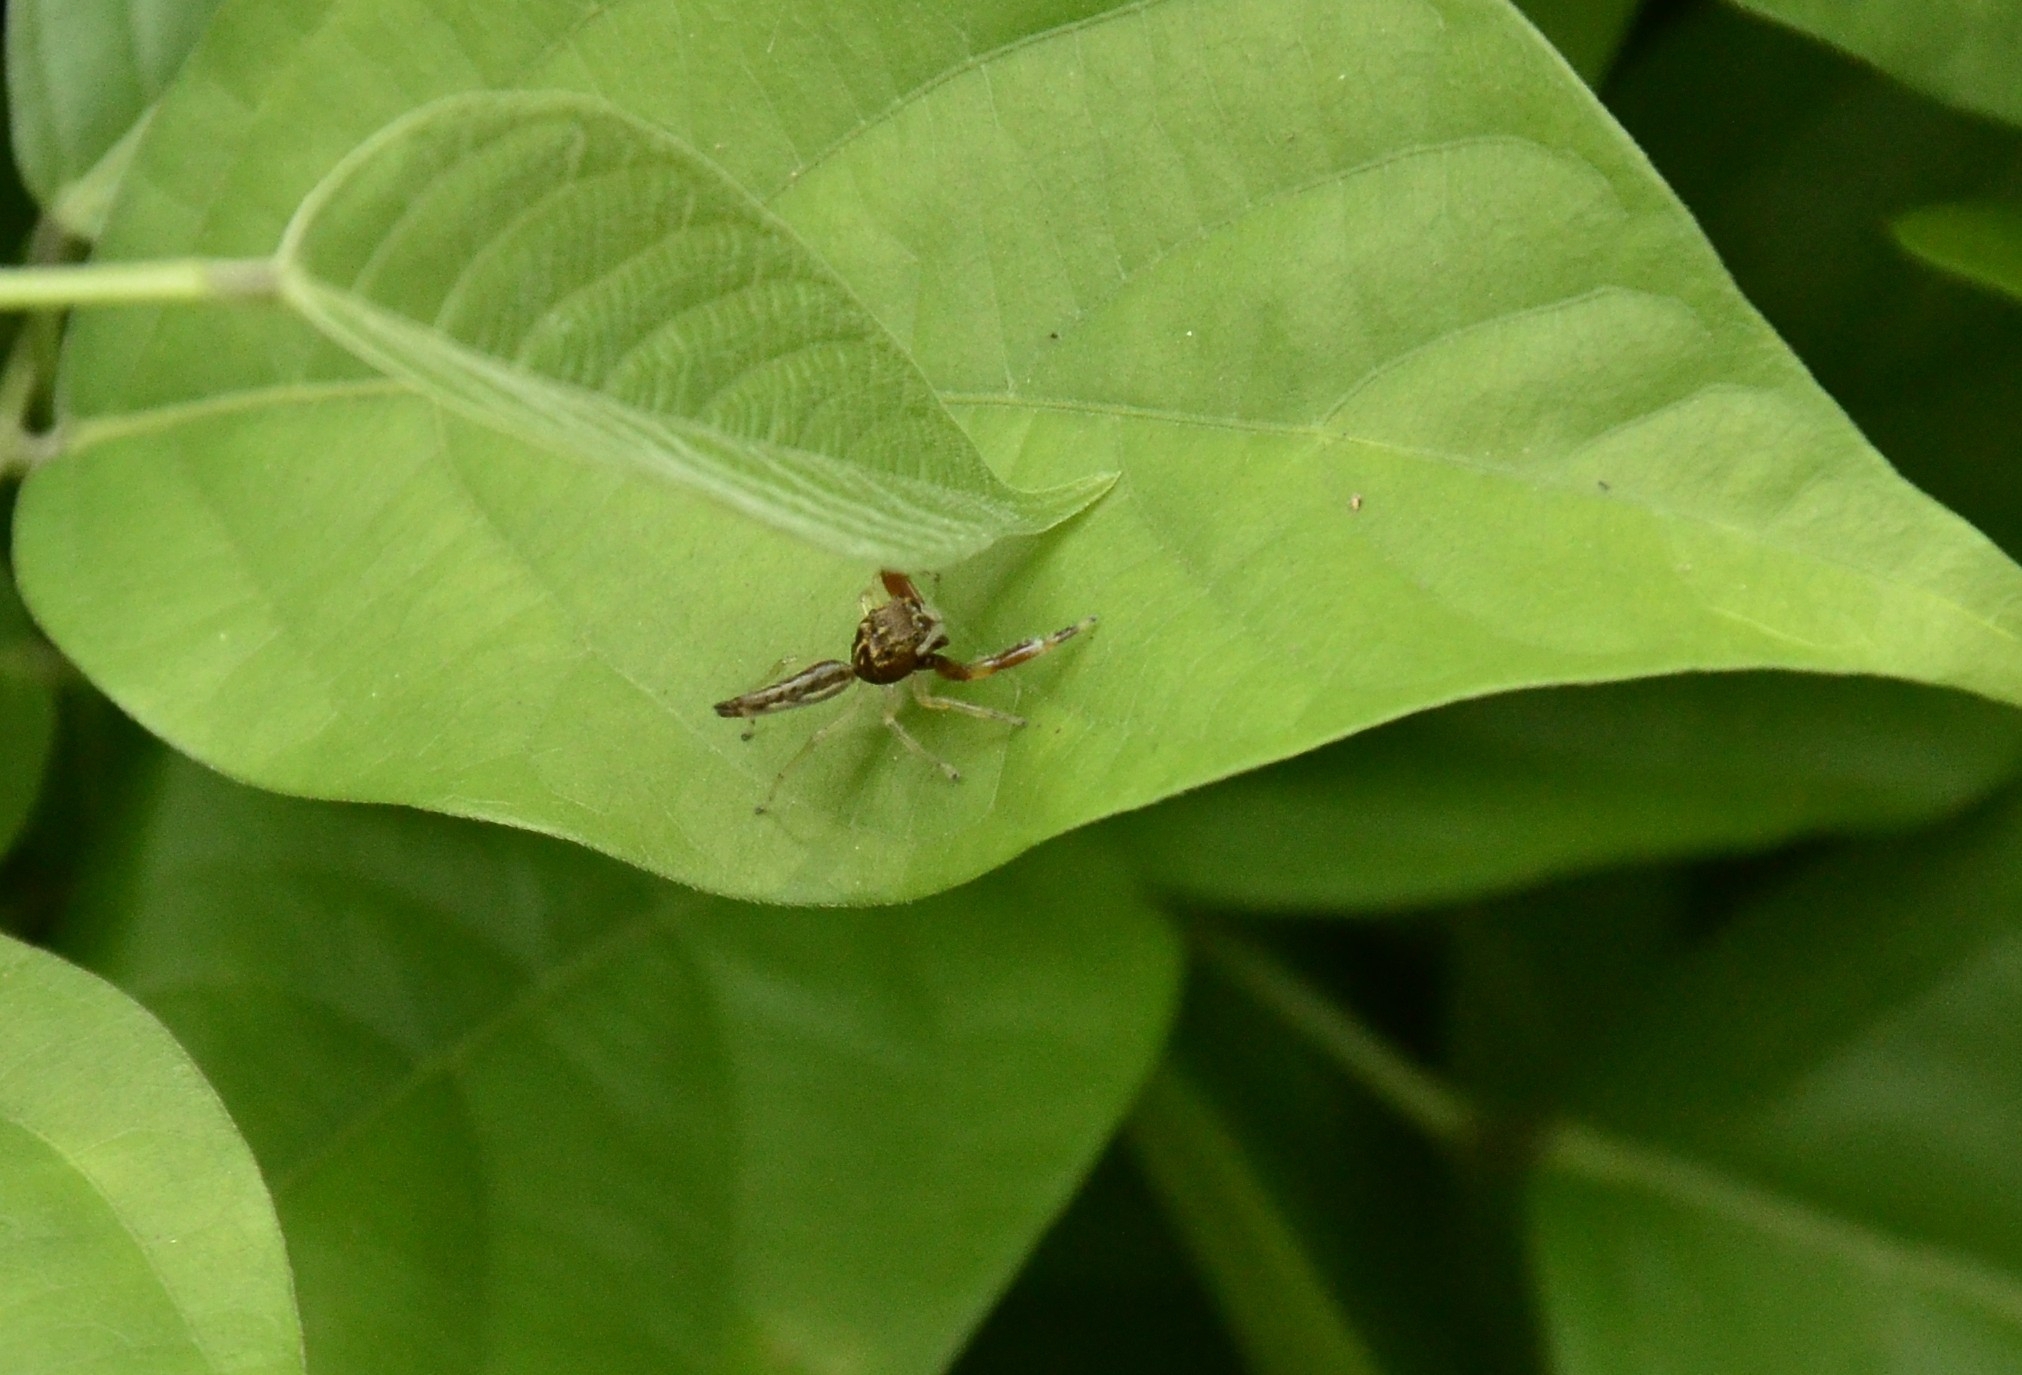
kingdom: Animalia
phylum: Arthropoda
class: Arachnida
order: Araneae
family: Salticidae
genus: Indopadilla
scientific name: Indopadilla insularis
